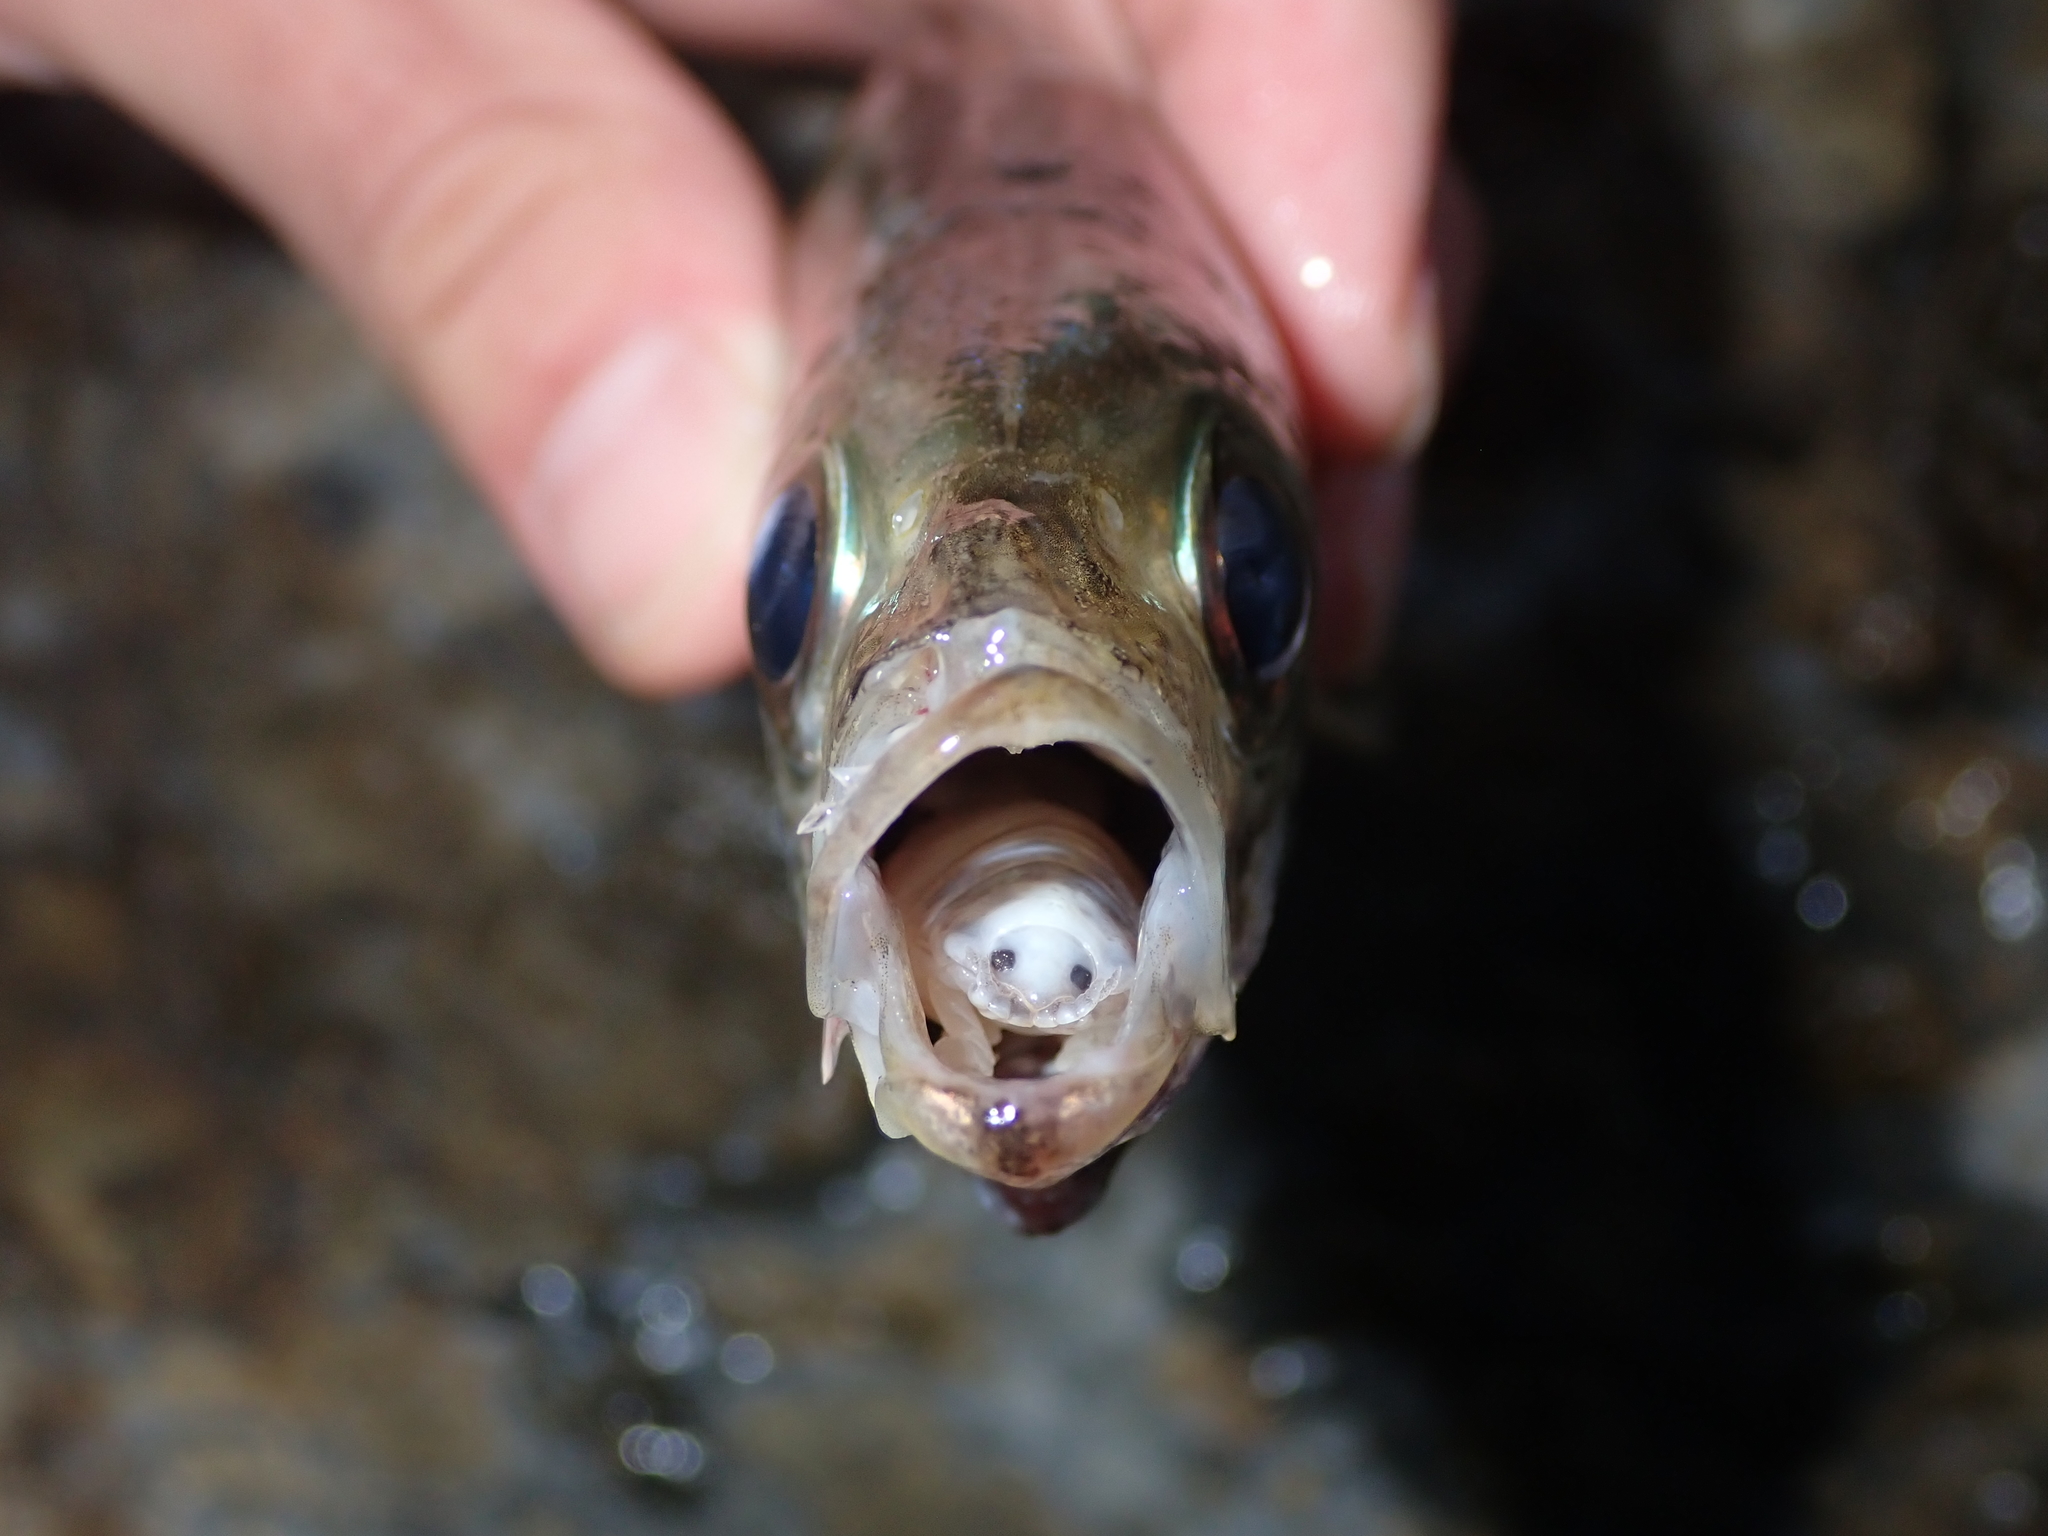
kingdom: Animalia
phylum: Arthropoda
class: Malacostraca
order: Isopoda
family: Cymothoidae
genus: Ceratothoa
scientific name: Ceratothoa
